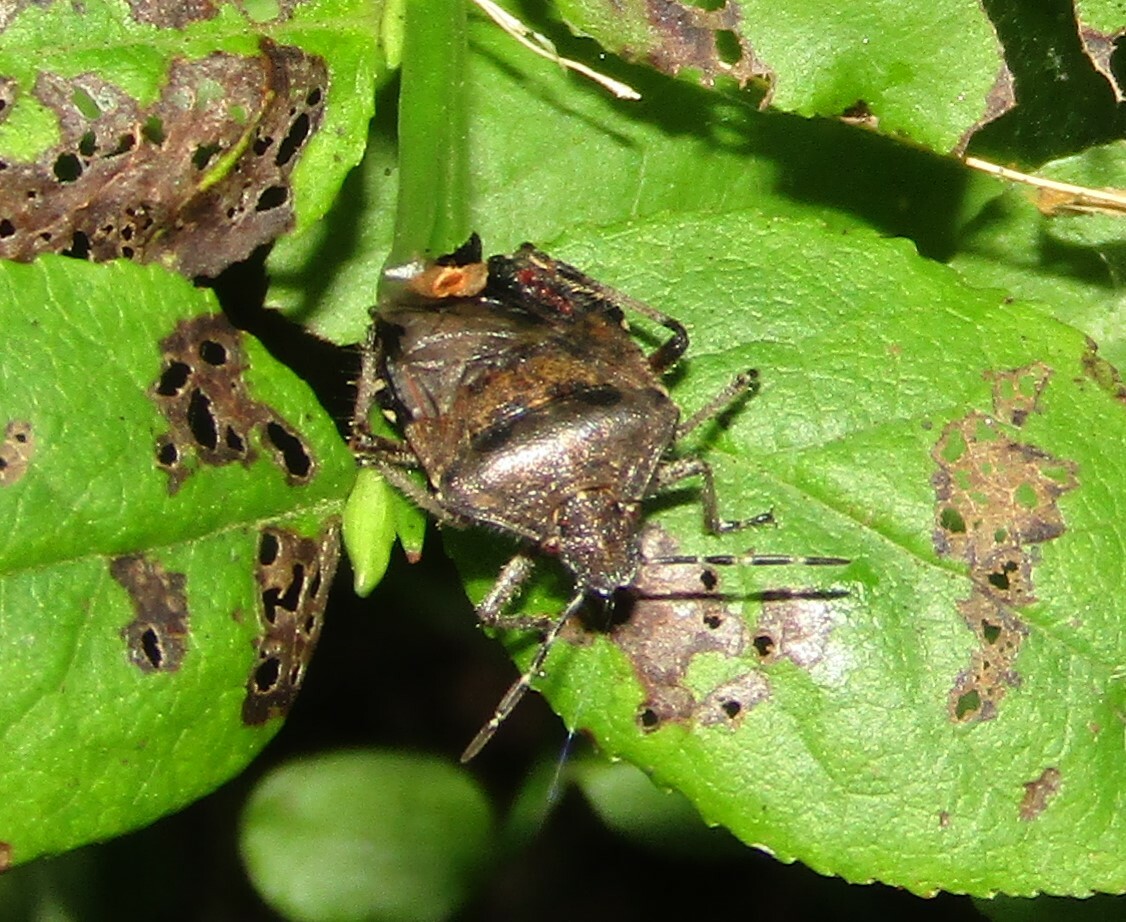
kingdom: Animalia
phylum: Arthropoda
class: Insecta
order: Hemiptera
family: Pentatomidae
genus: Dolycoris
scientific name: Dolycoris baccarum
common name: Sloe bug
